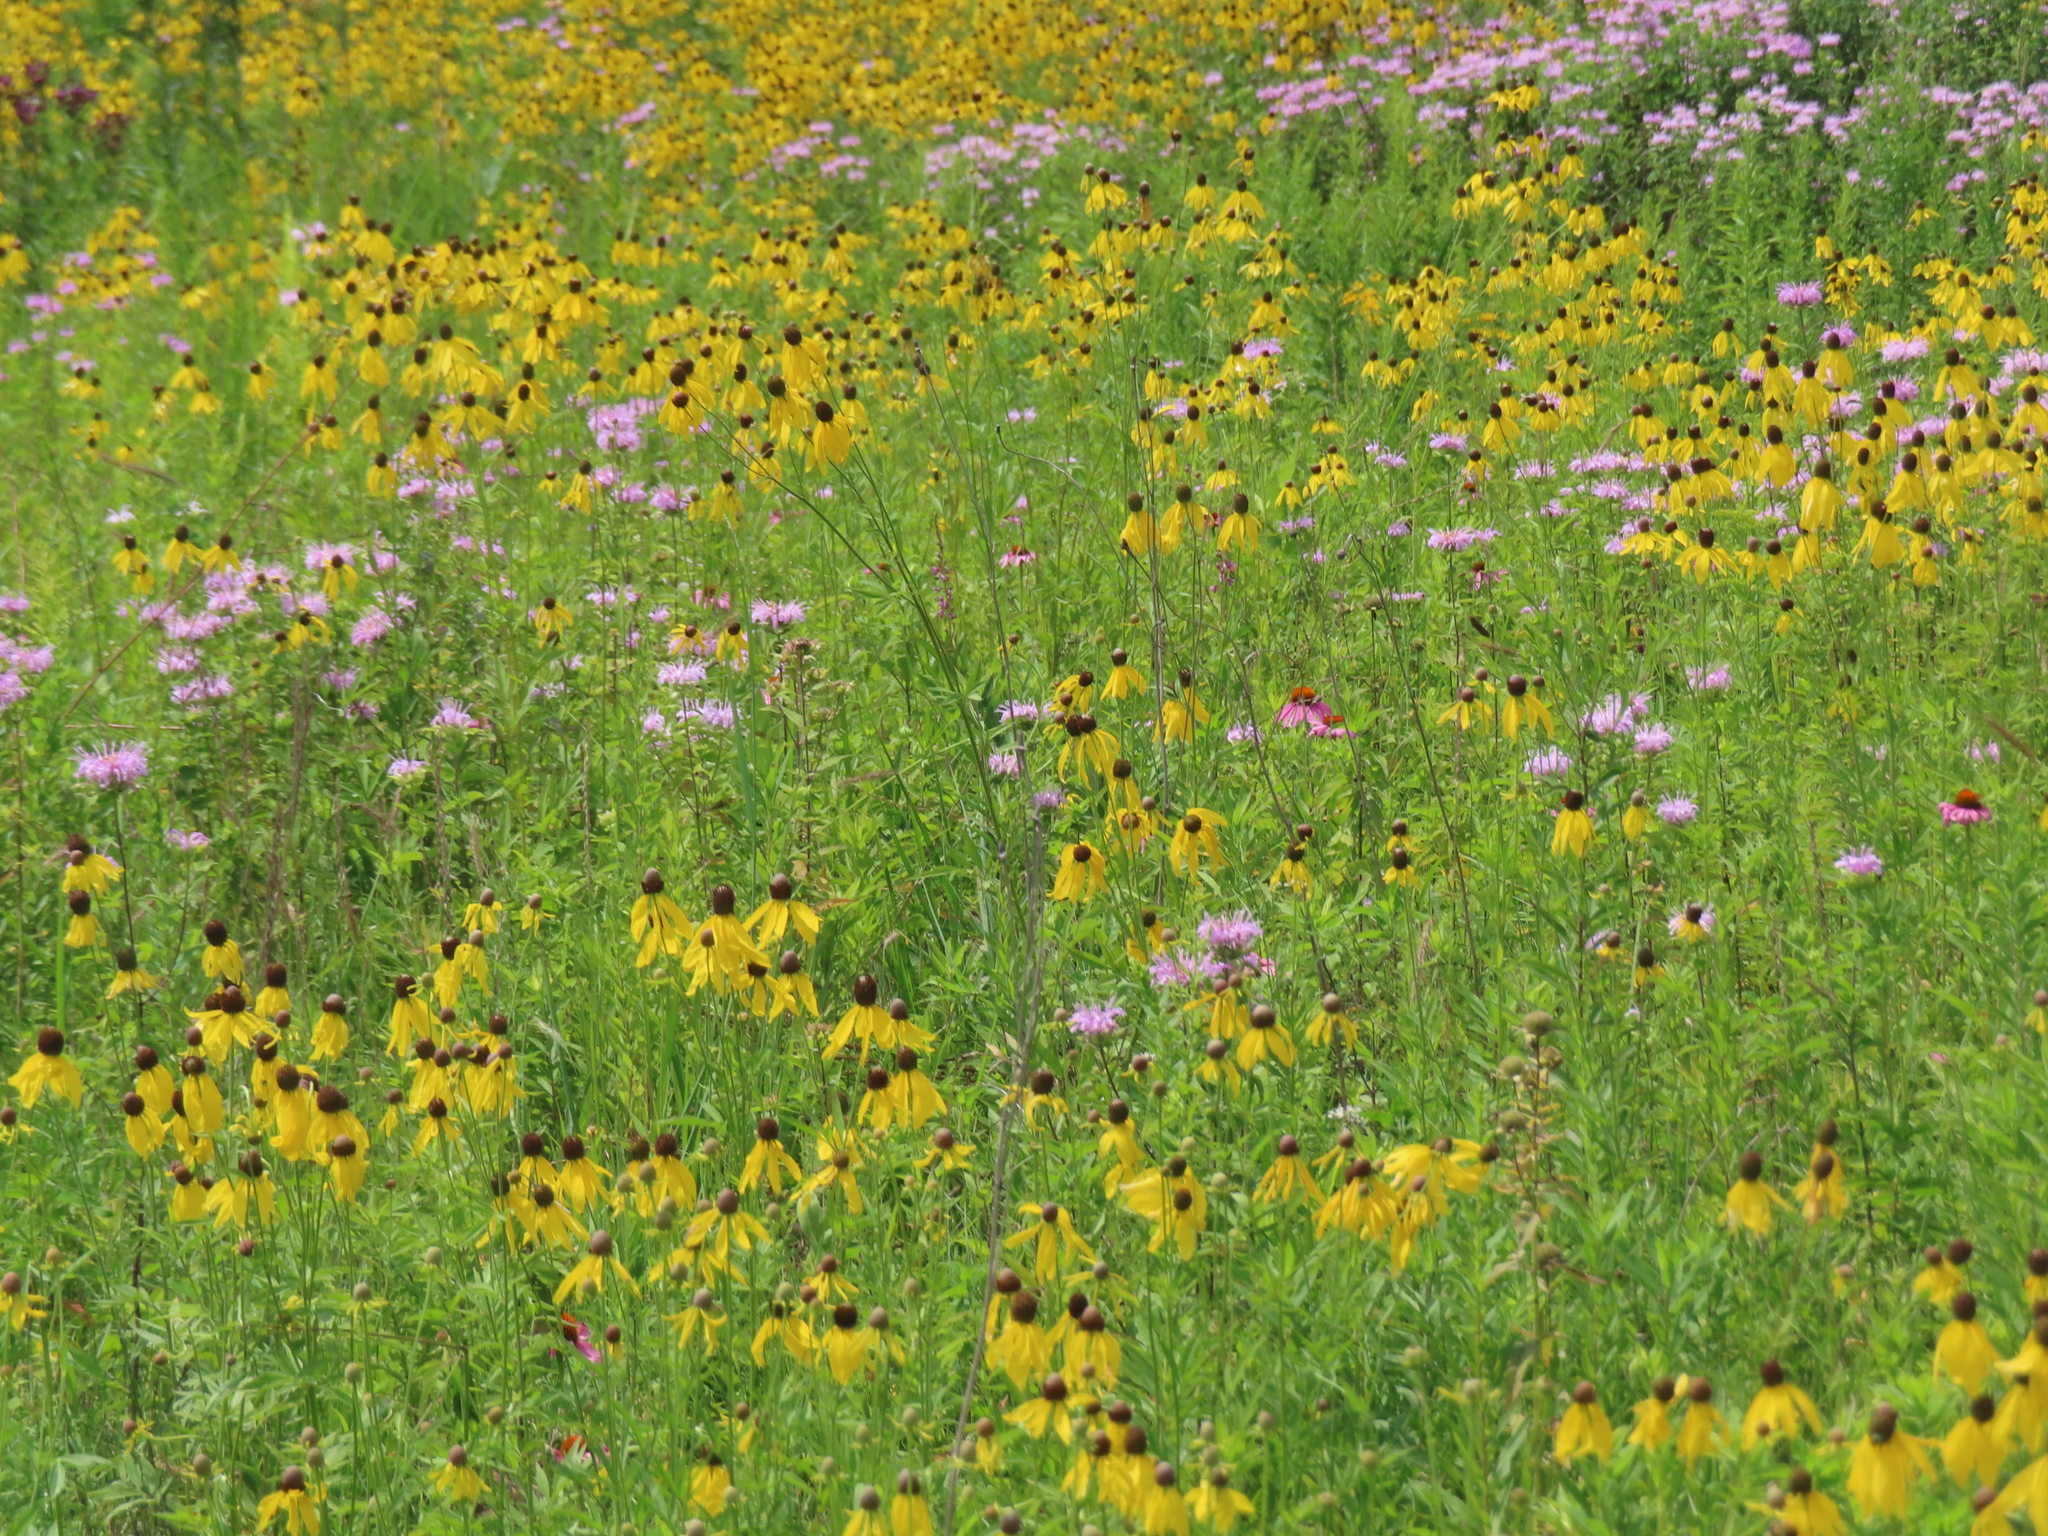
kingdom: Plantae
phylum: Tracheophyta
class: Magnoliopsida
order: Lamiales
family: Lamiaceae
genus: Monarda
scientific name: Monarda fistulosa
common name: Purple beebalm
